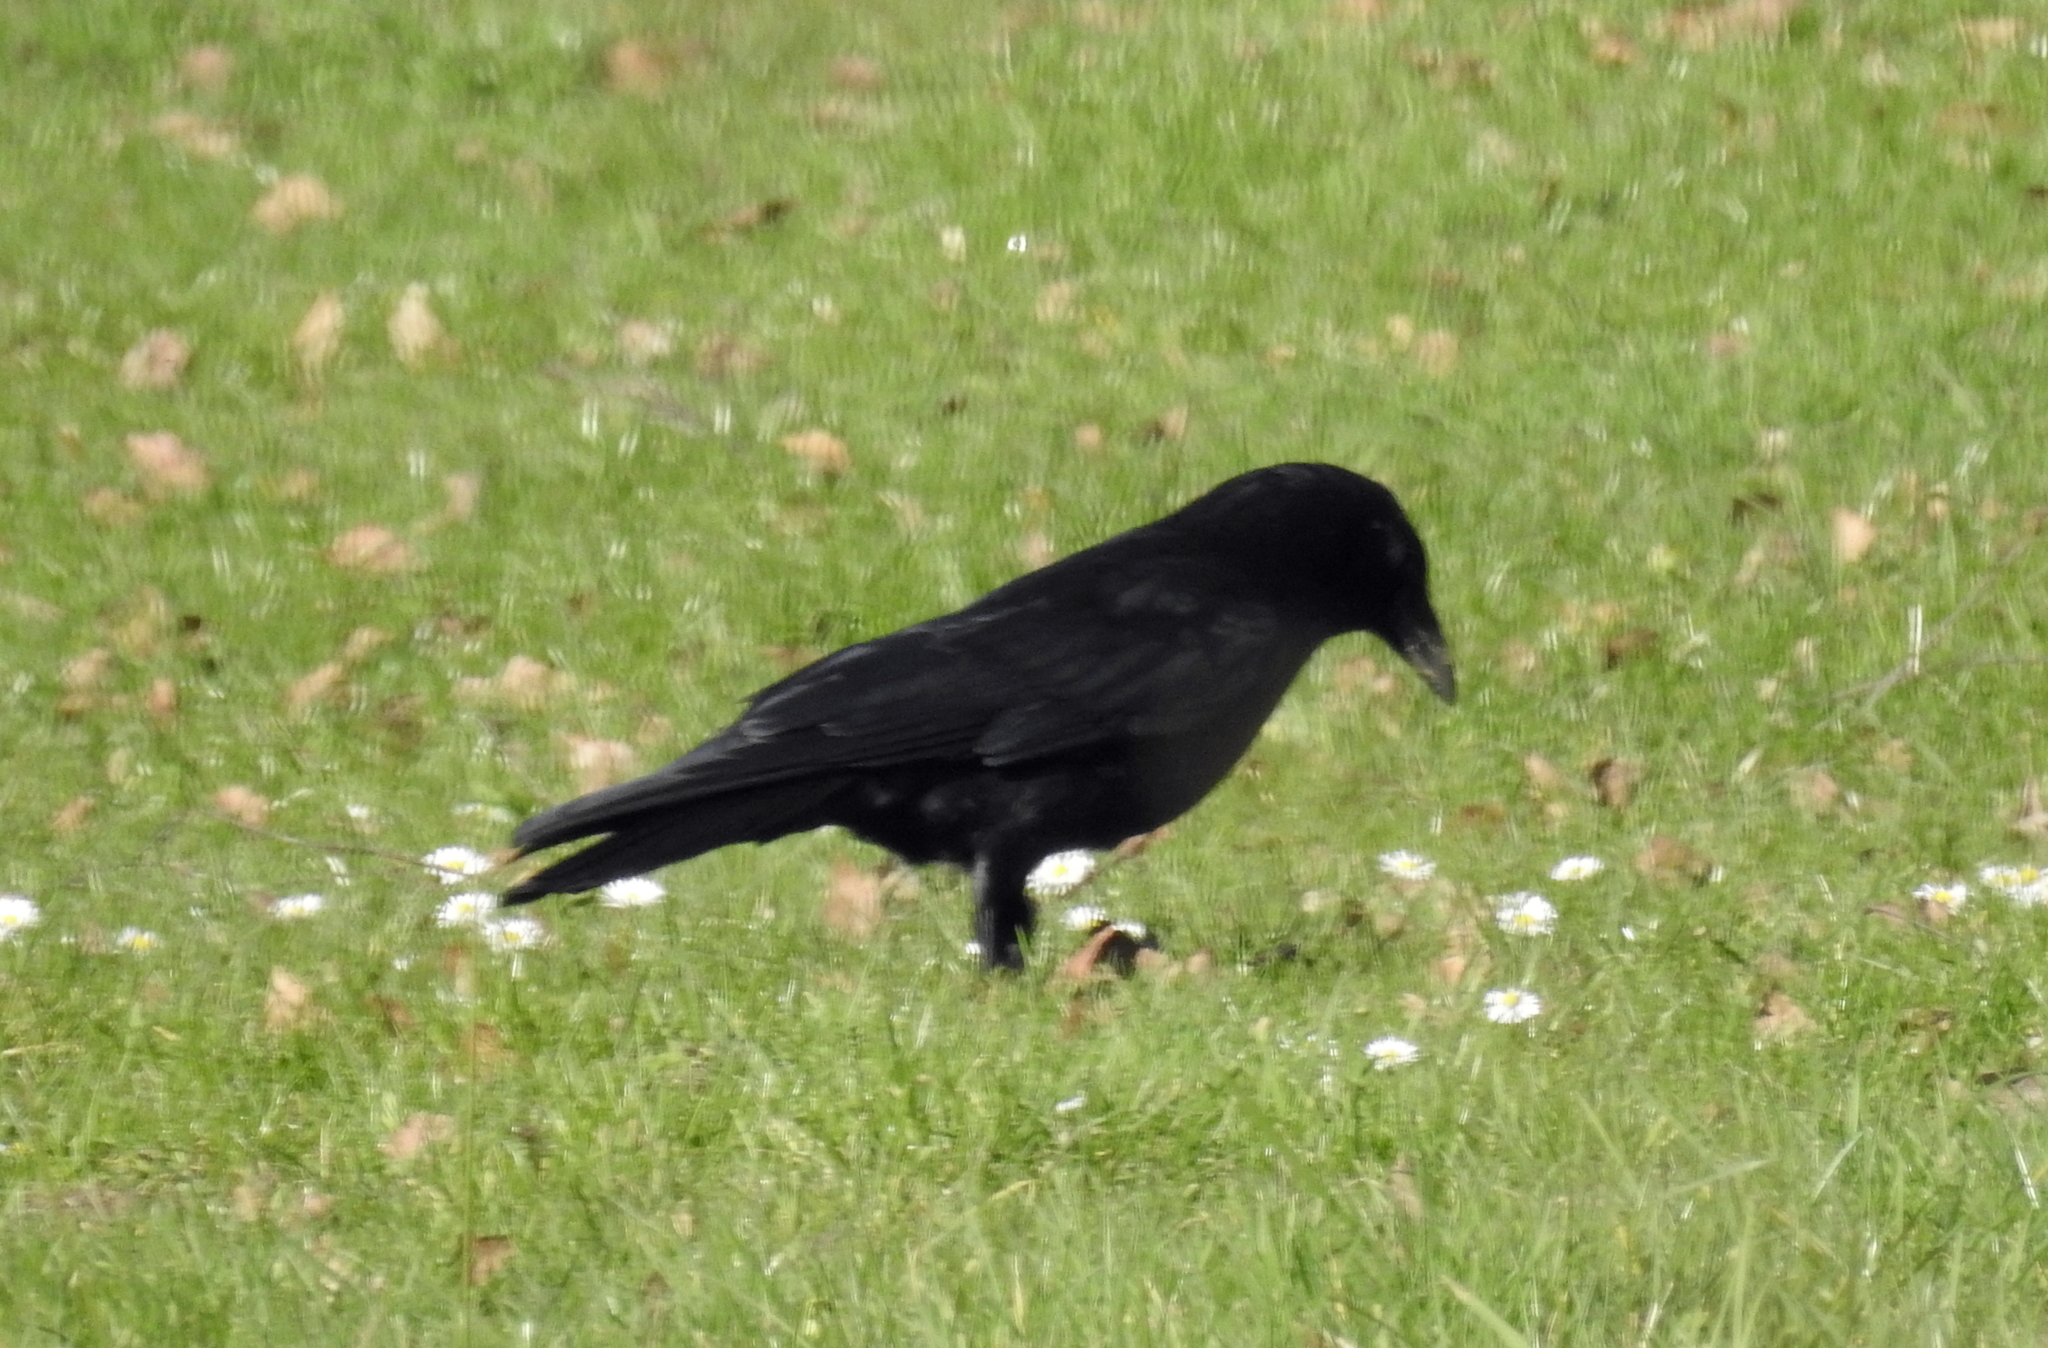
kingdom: Animalia
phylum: Chordata
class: Aves
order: Passeriformes
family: Corvidae
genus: Corvus
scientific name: Corvus corone
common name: Carrion crow
